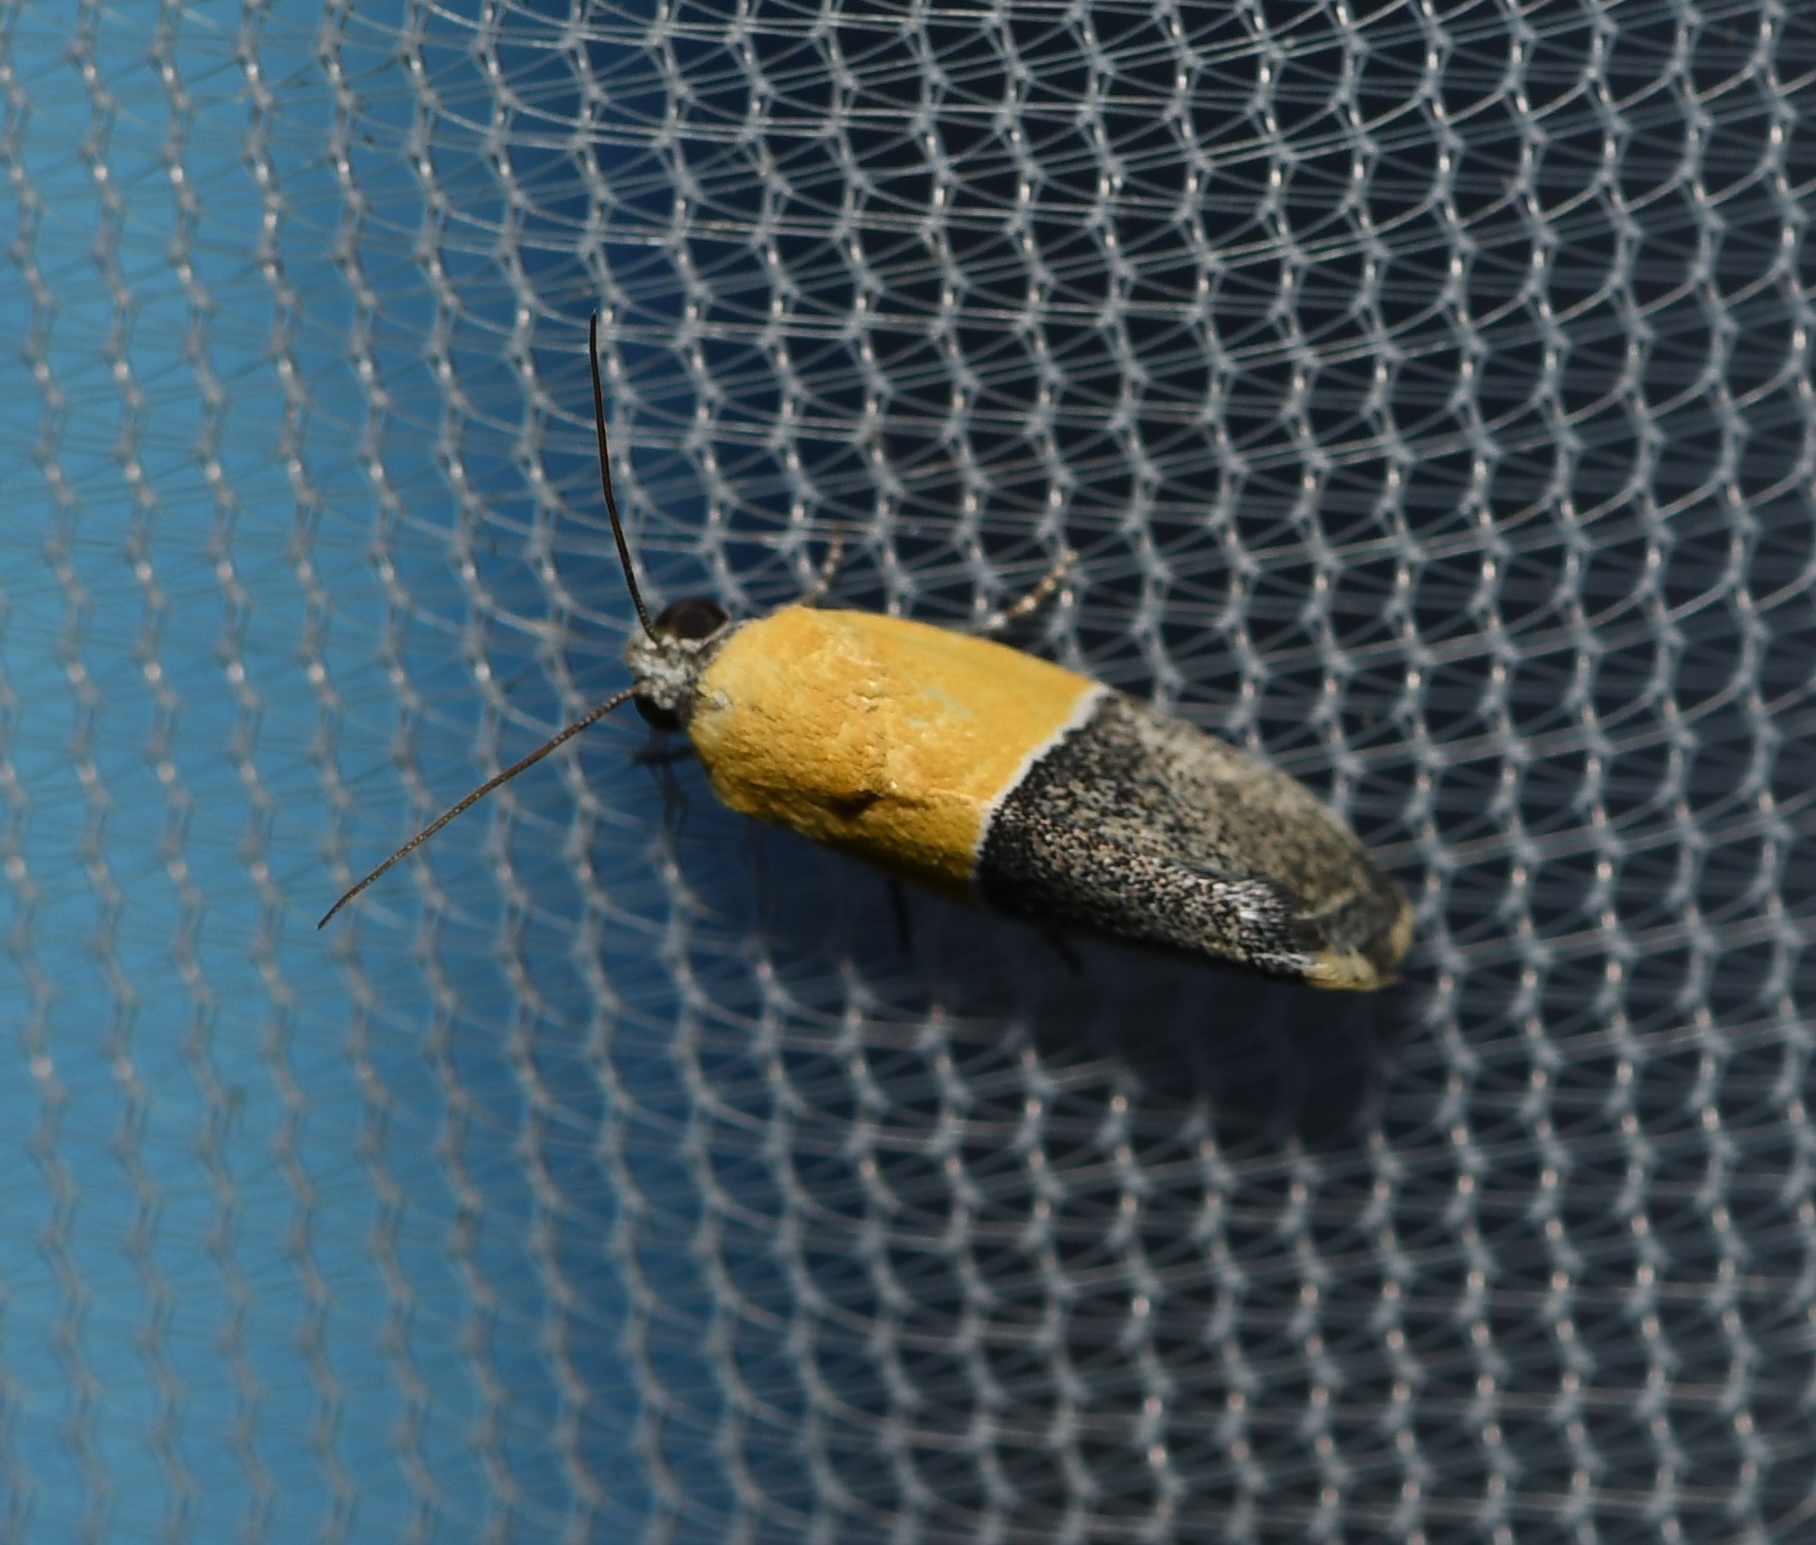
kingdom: Animalia
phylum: Arthropoda
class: Insecta
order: Lepidoptera
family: Noctuidae
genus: Acontia
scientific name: Acontia clausula
